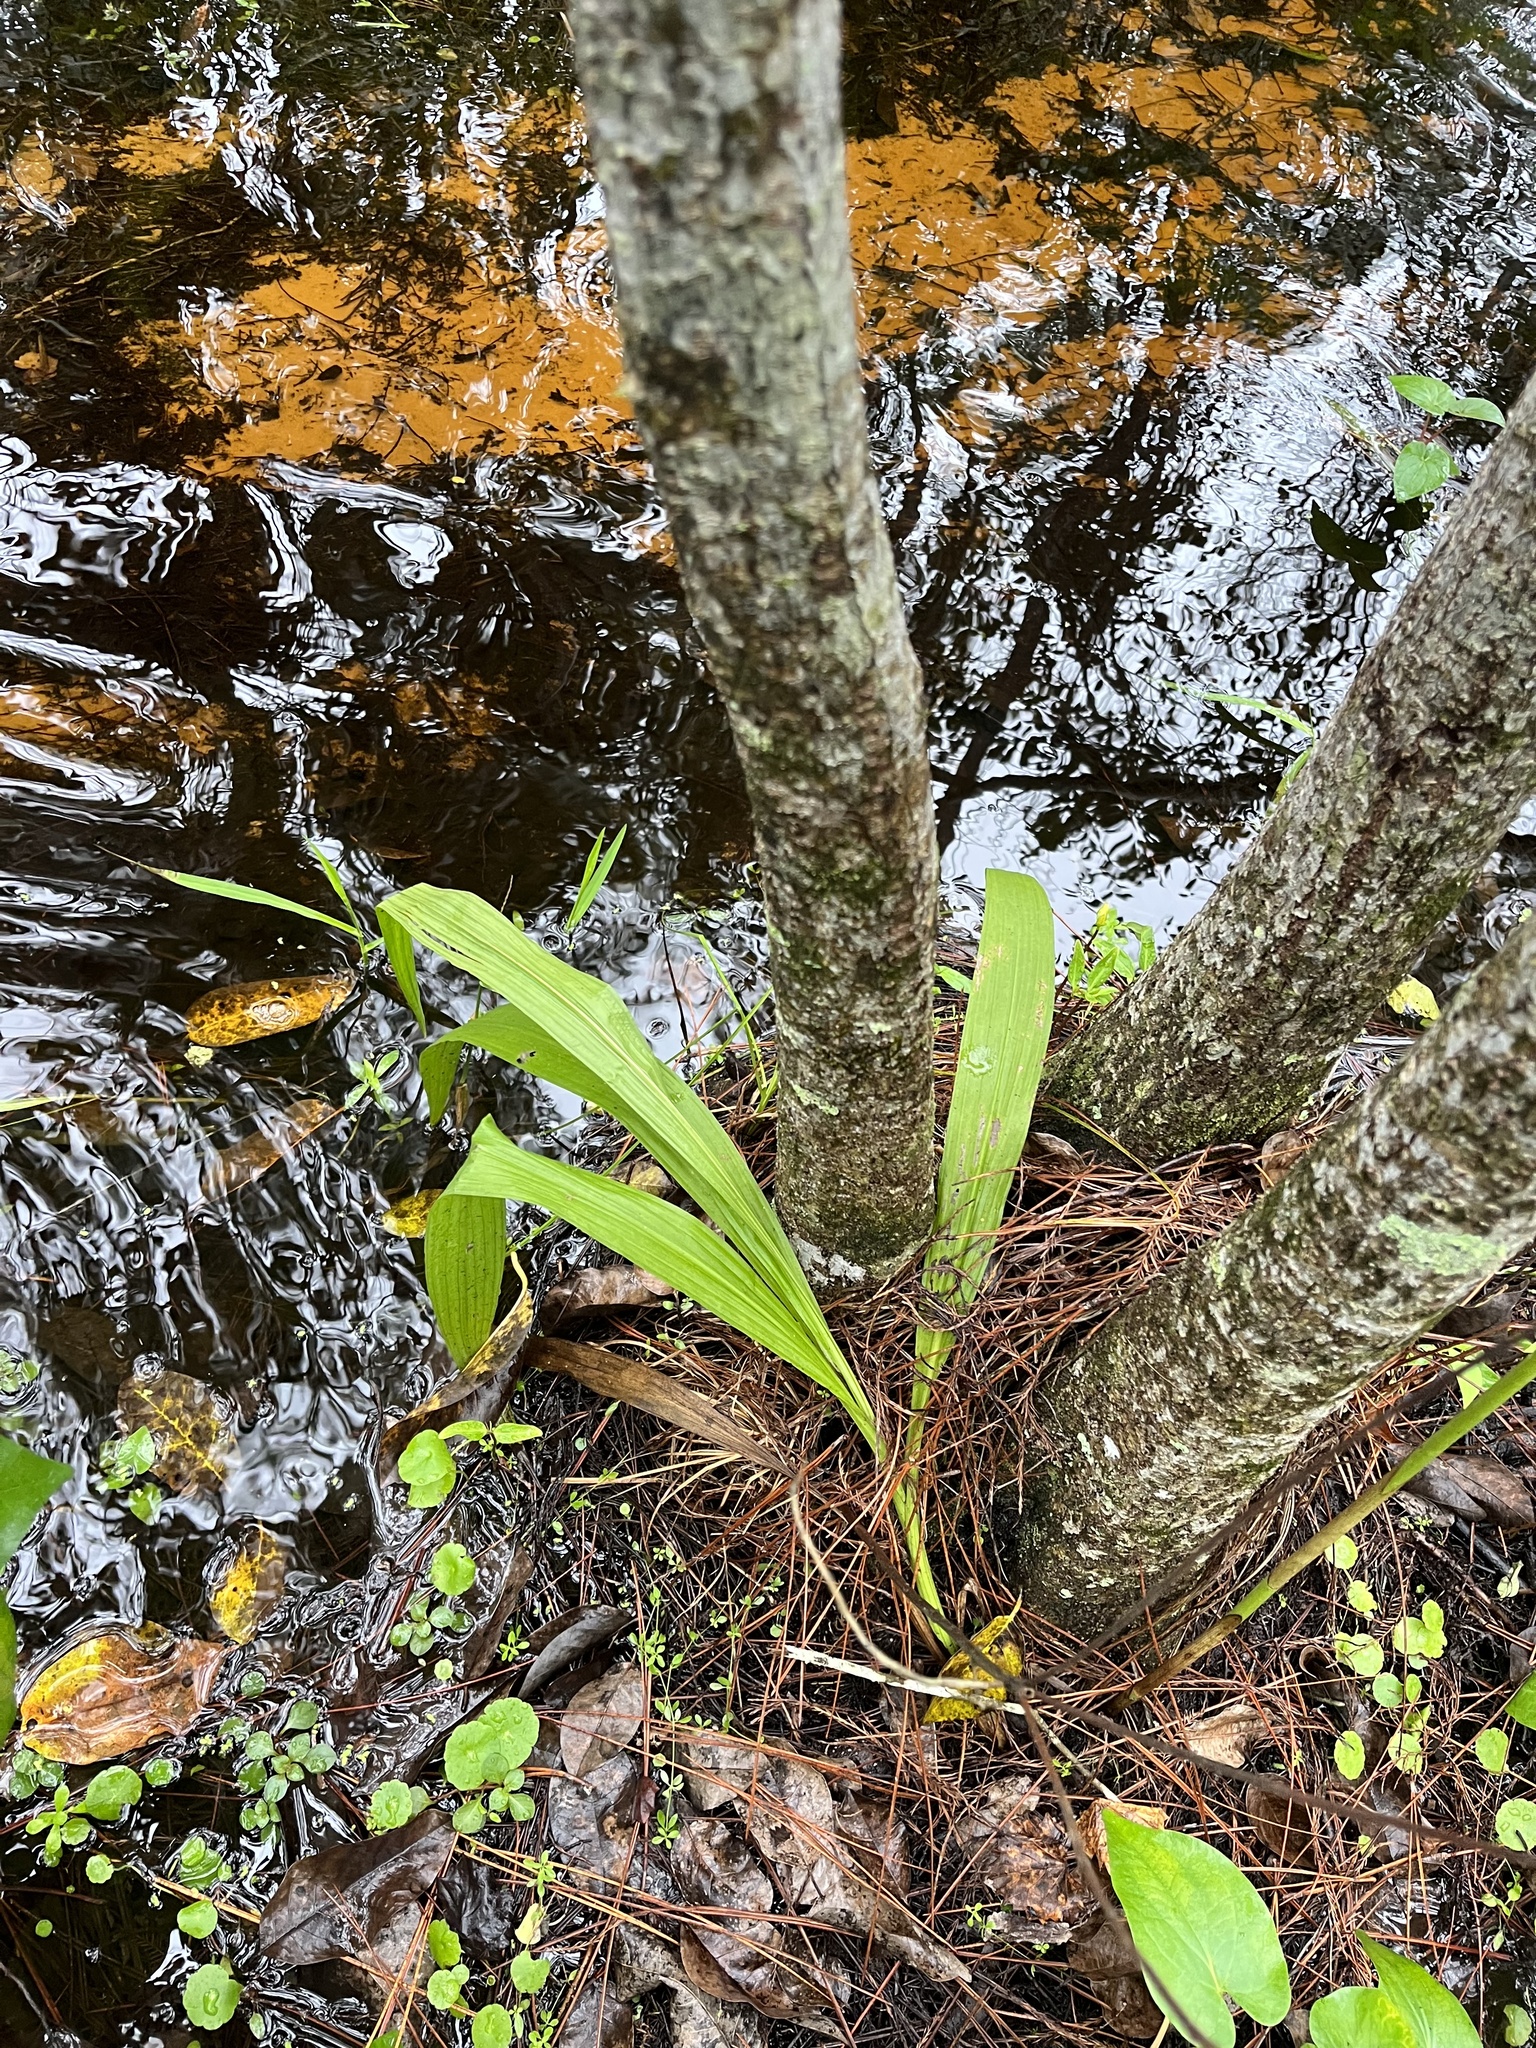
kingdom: Plantae
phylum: Tracheophyta
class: Liliopsida
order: Asparagales
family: Orchidaceae
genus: Eulophia
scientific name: Eulophia alta
